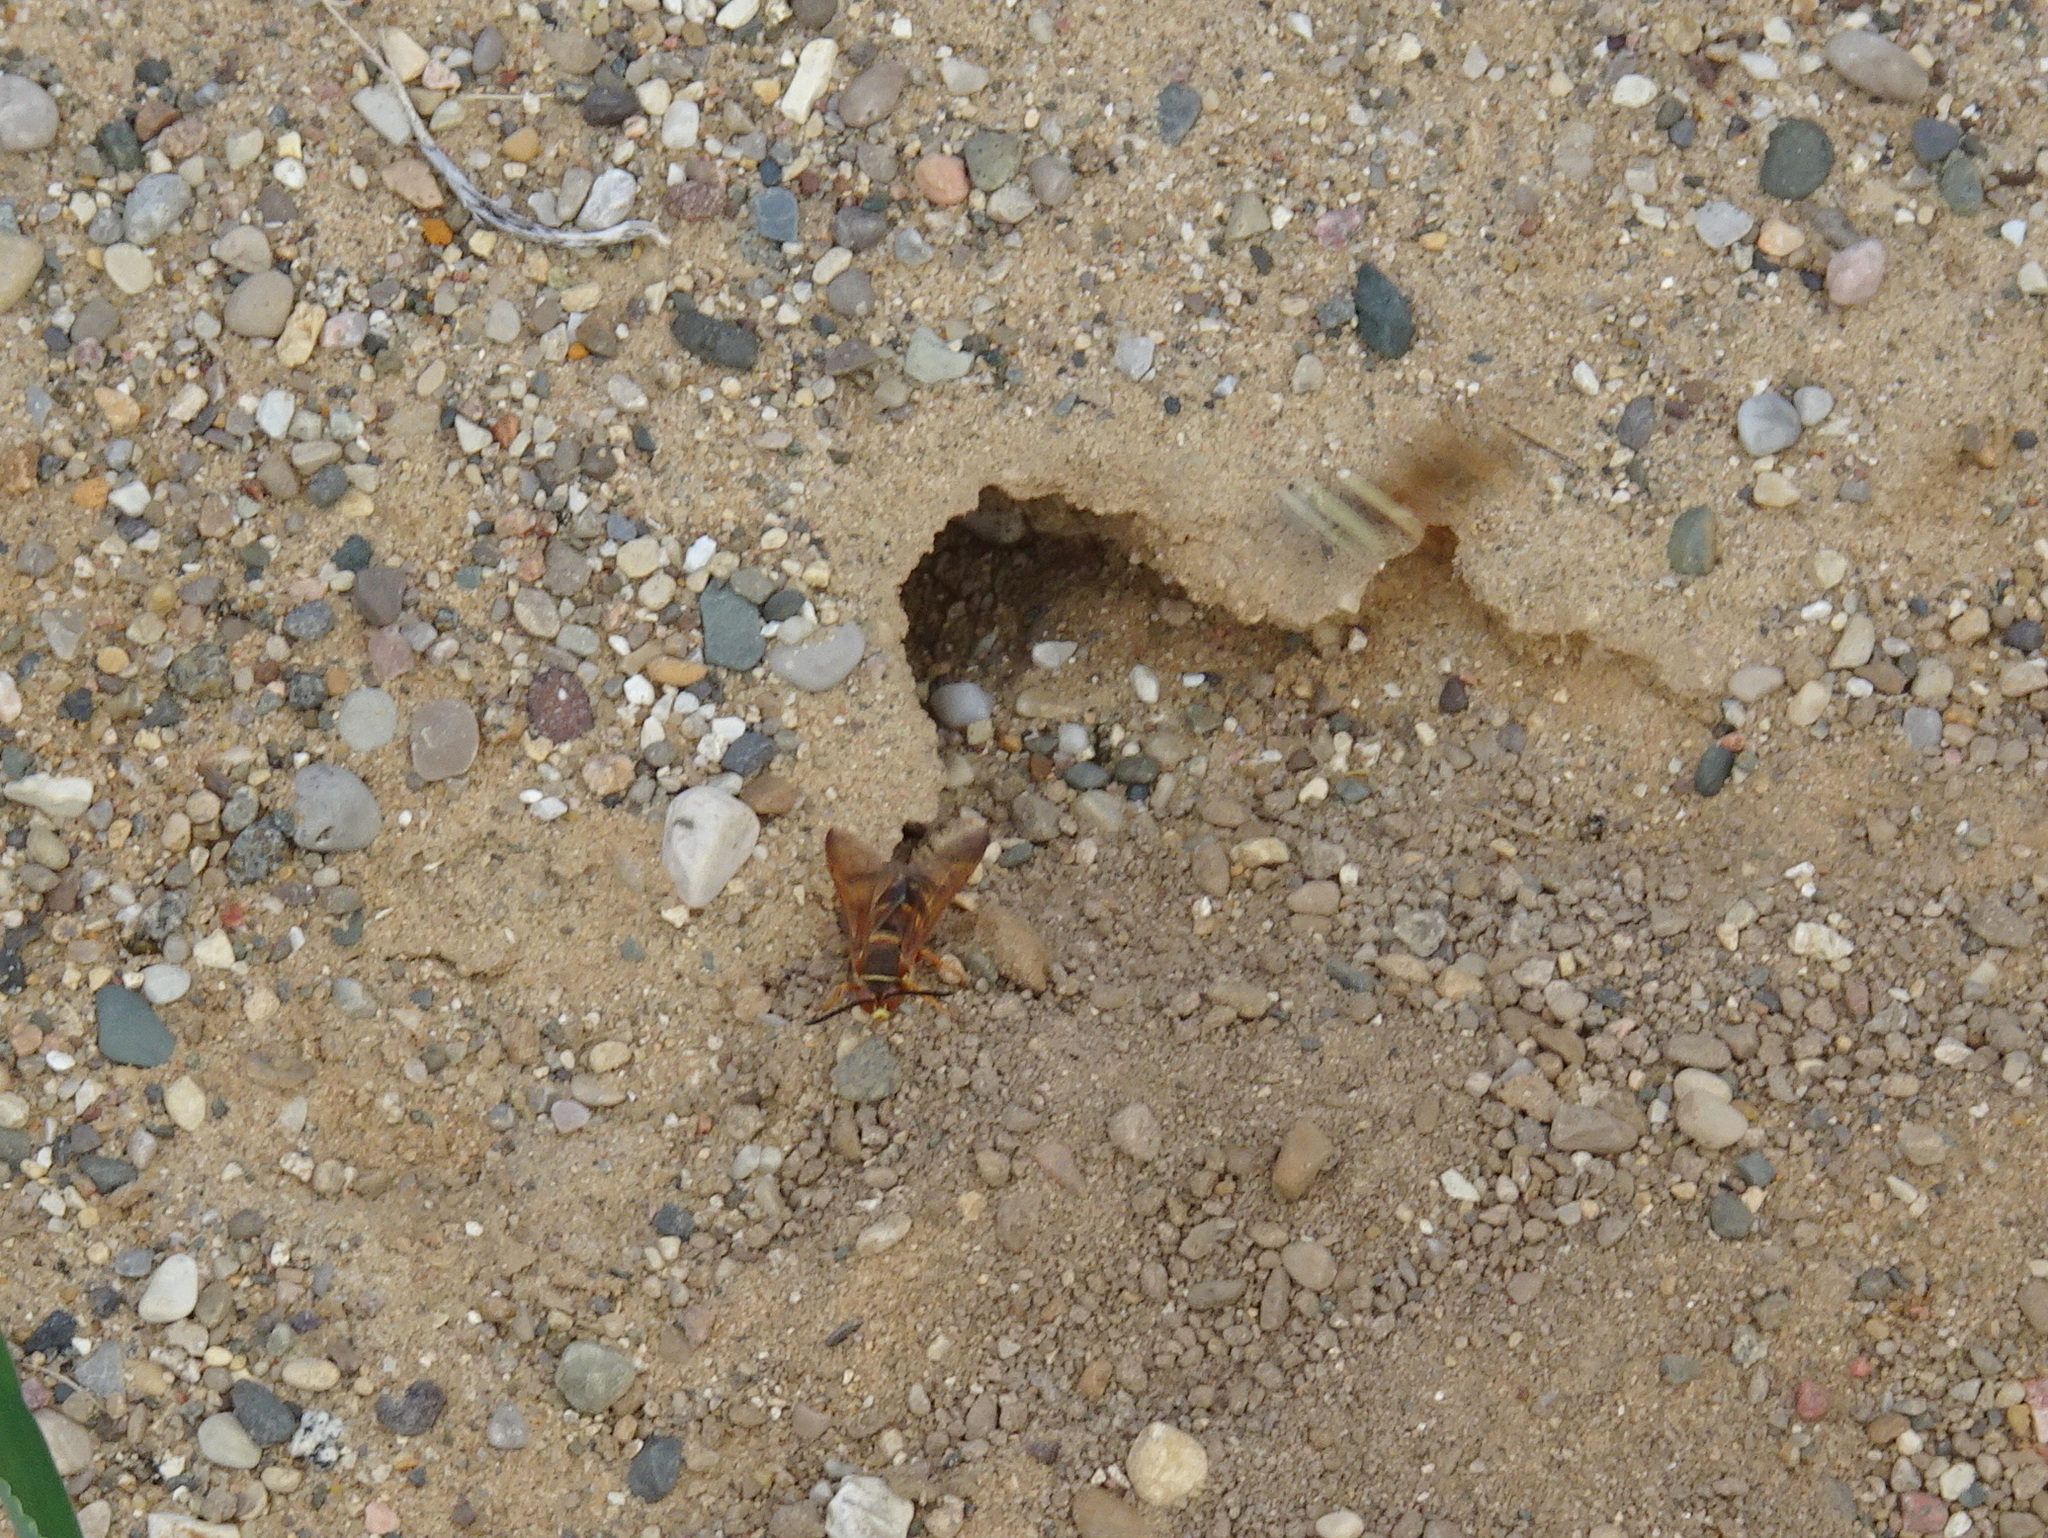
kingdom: Animalia
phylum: Arthropoda
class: Insecta
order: Hymenoptera
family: Crabronidae
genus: Sphecius
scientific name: Sphecius speciosus
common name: Cicada killer
